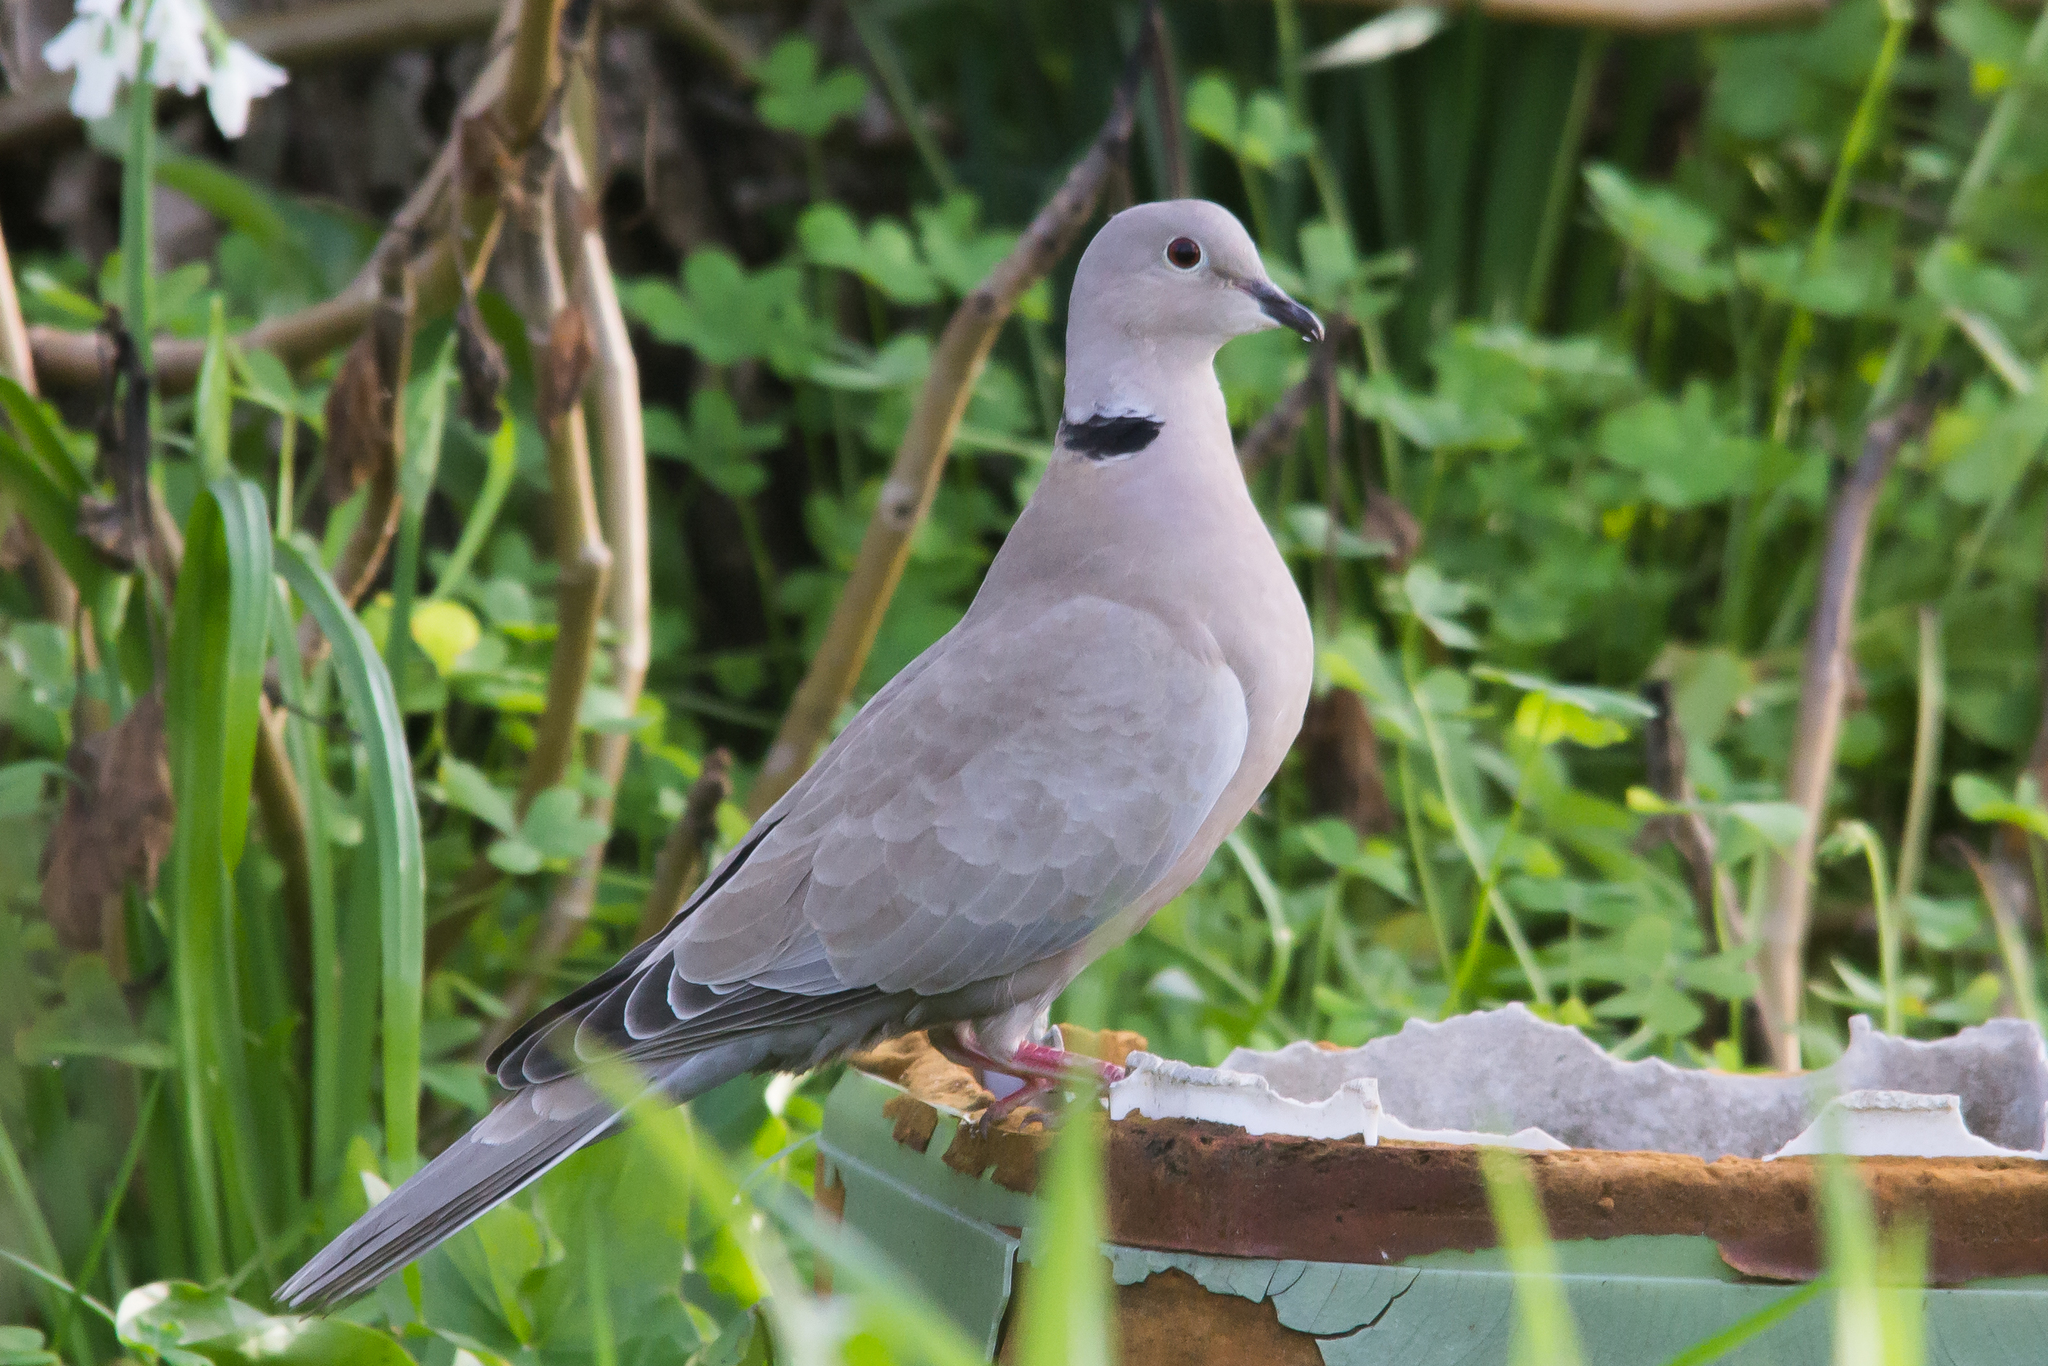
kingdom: Animalia
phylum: Chordata
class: Aves
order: Columbiformes
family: Columbidae
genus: Streptopelia
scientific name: Streptopelia decaocto
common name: Eurasian collared dove
